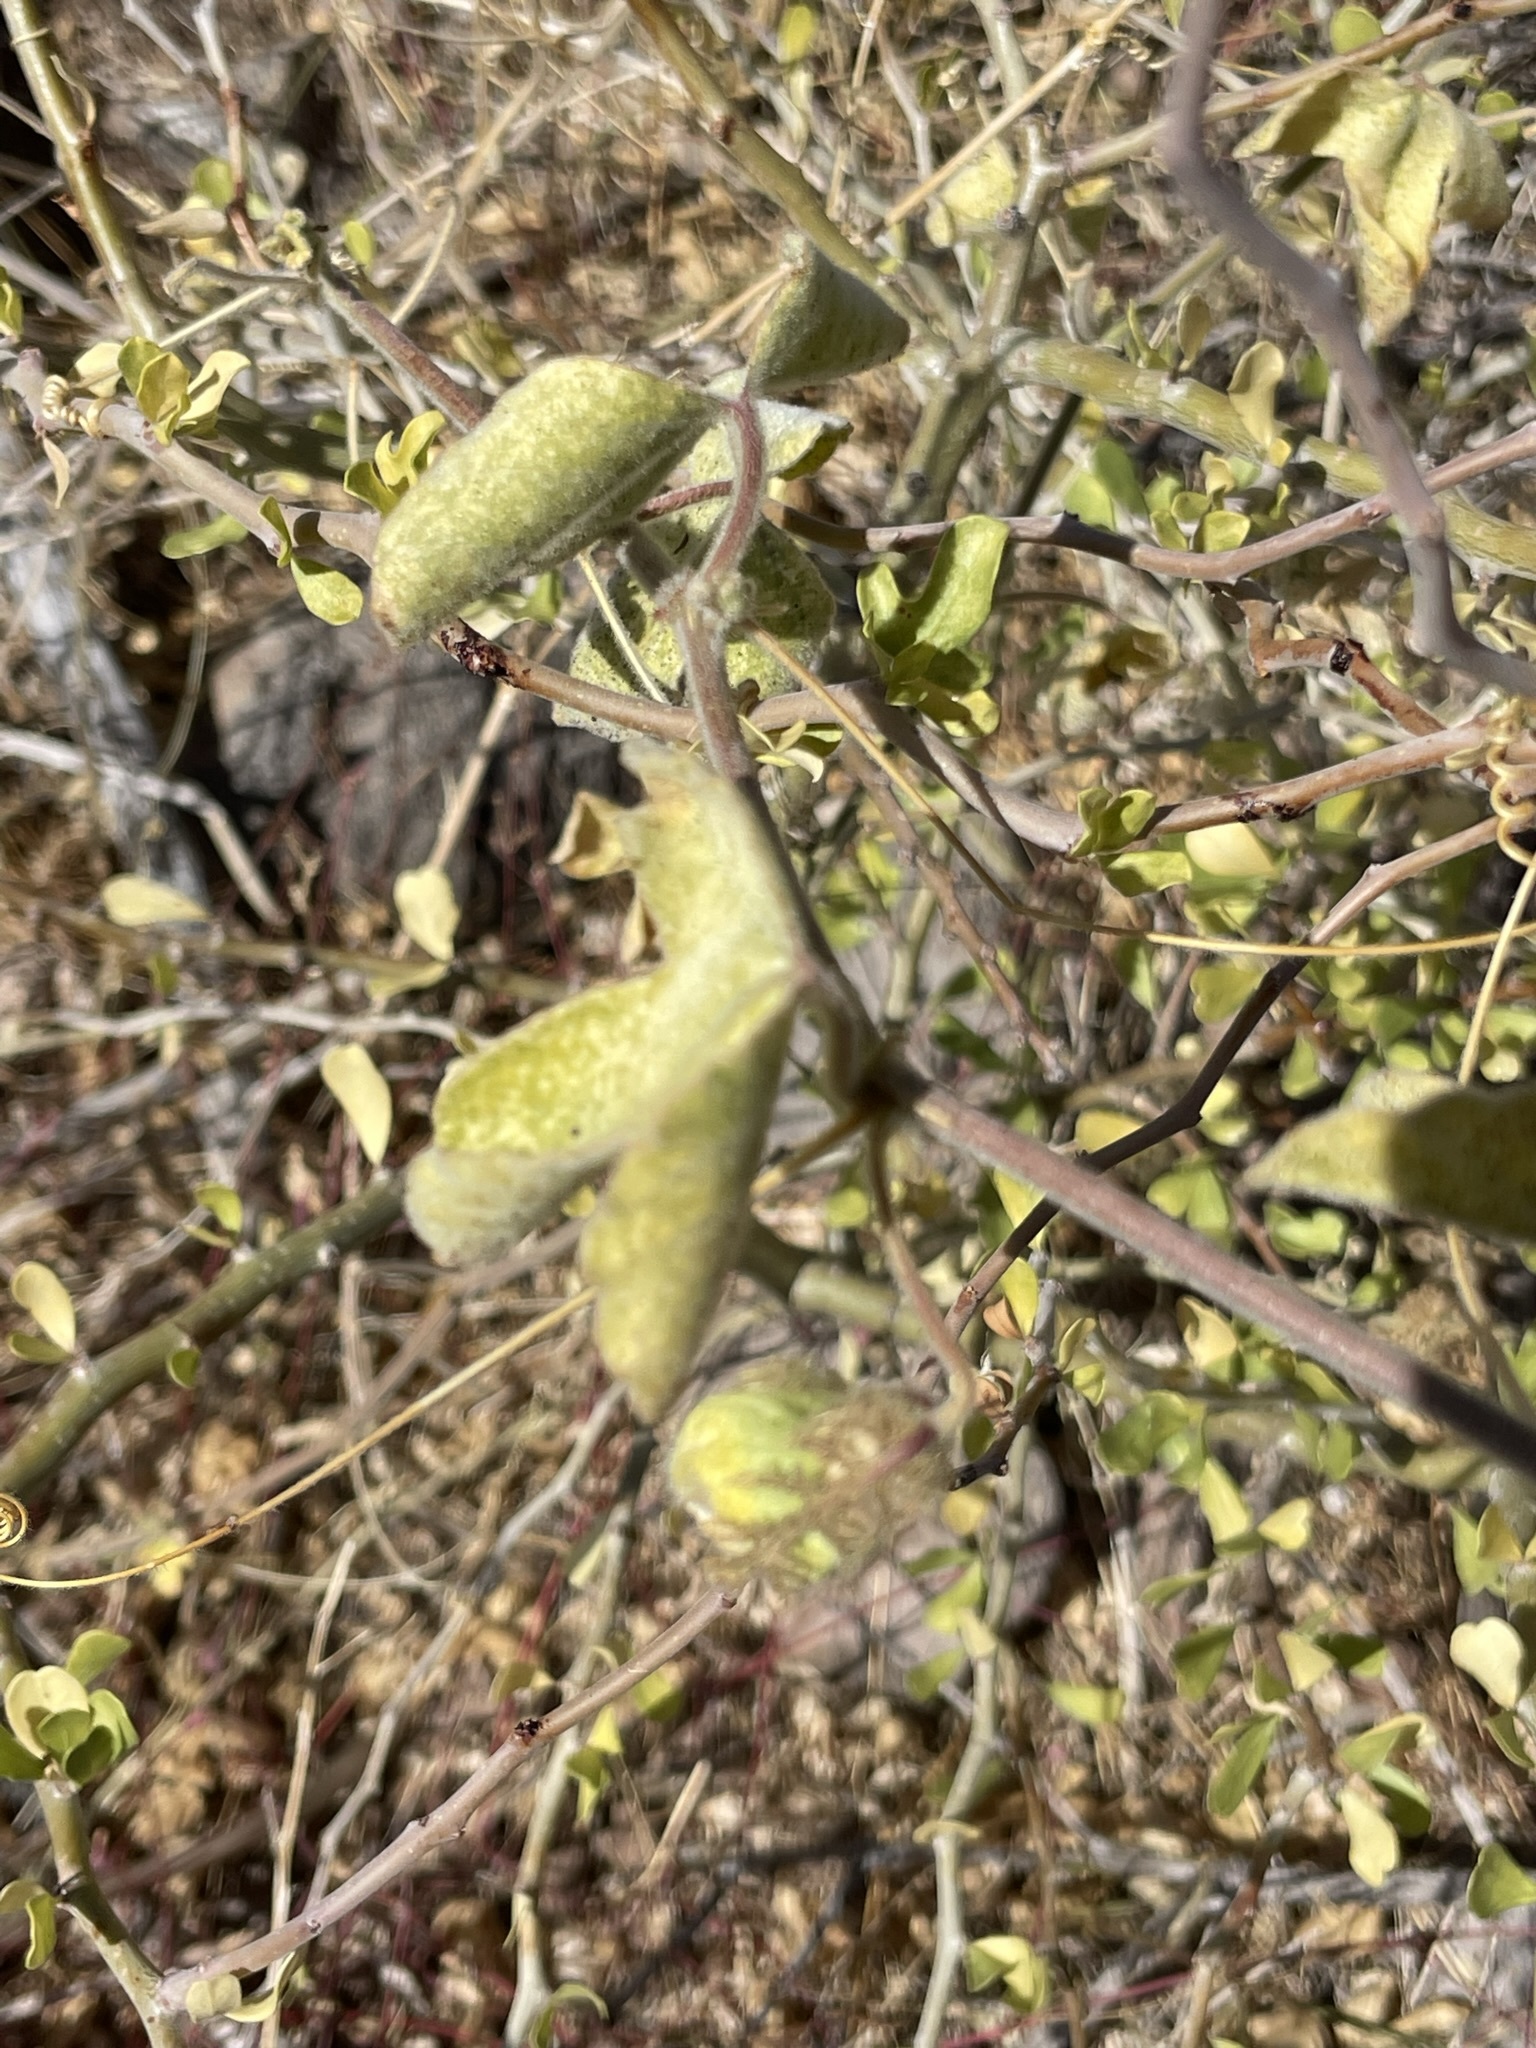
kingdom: Plantae
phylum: Tracheophyta
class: Magnoliopsida
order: Malpighiales
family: Passifloraceae
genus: Passiflora
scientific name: Passiflora arida
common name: Desert passionflower
